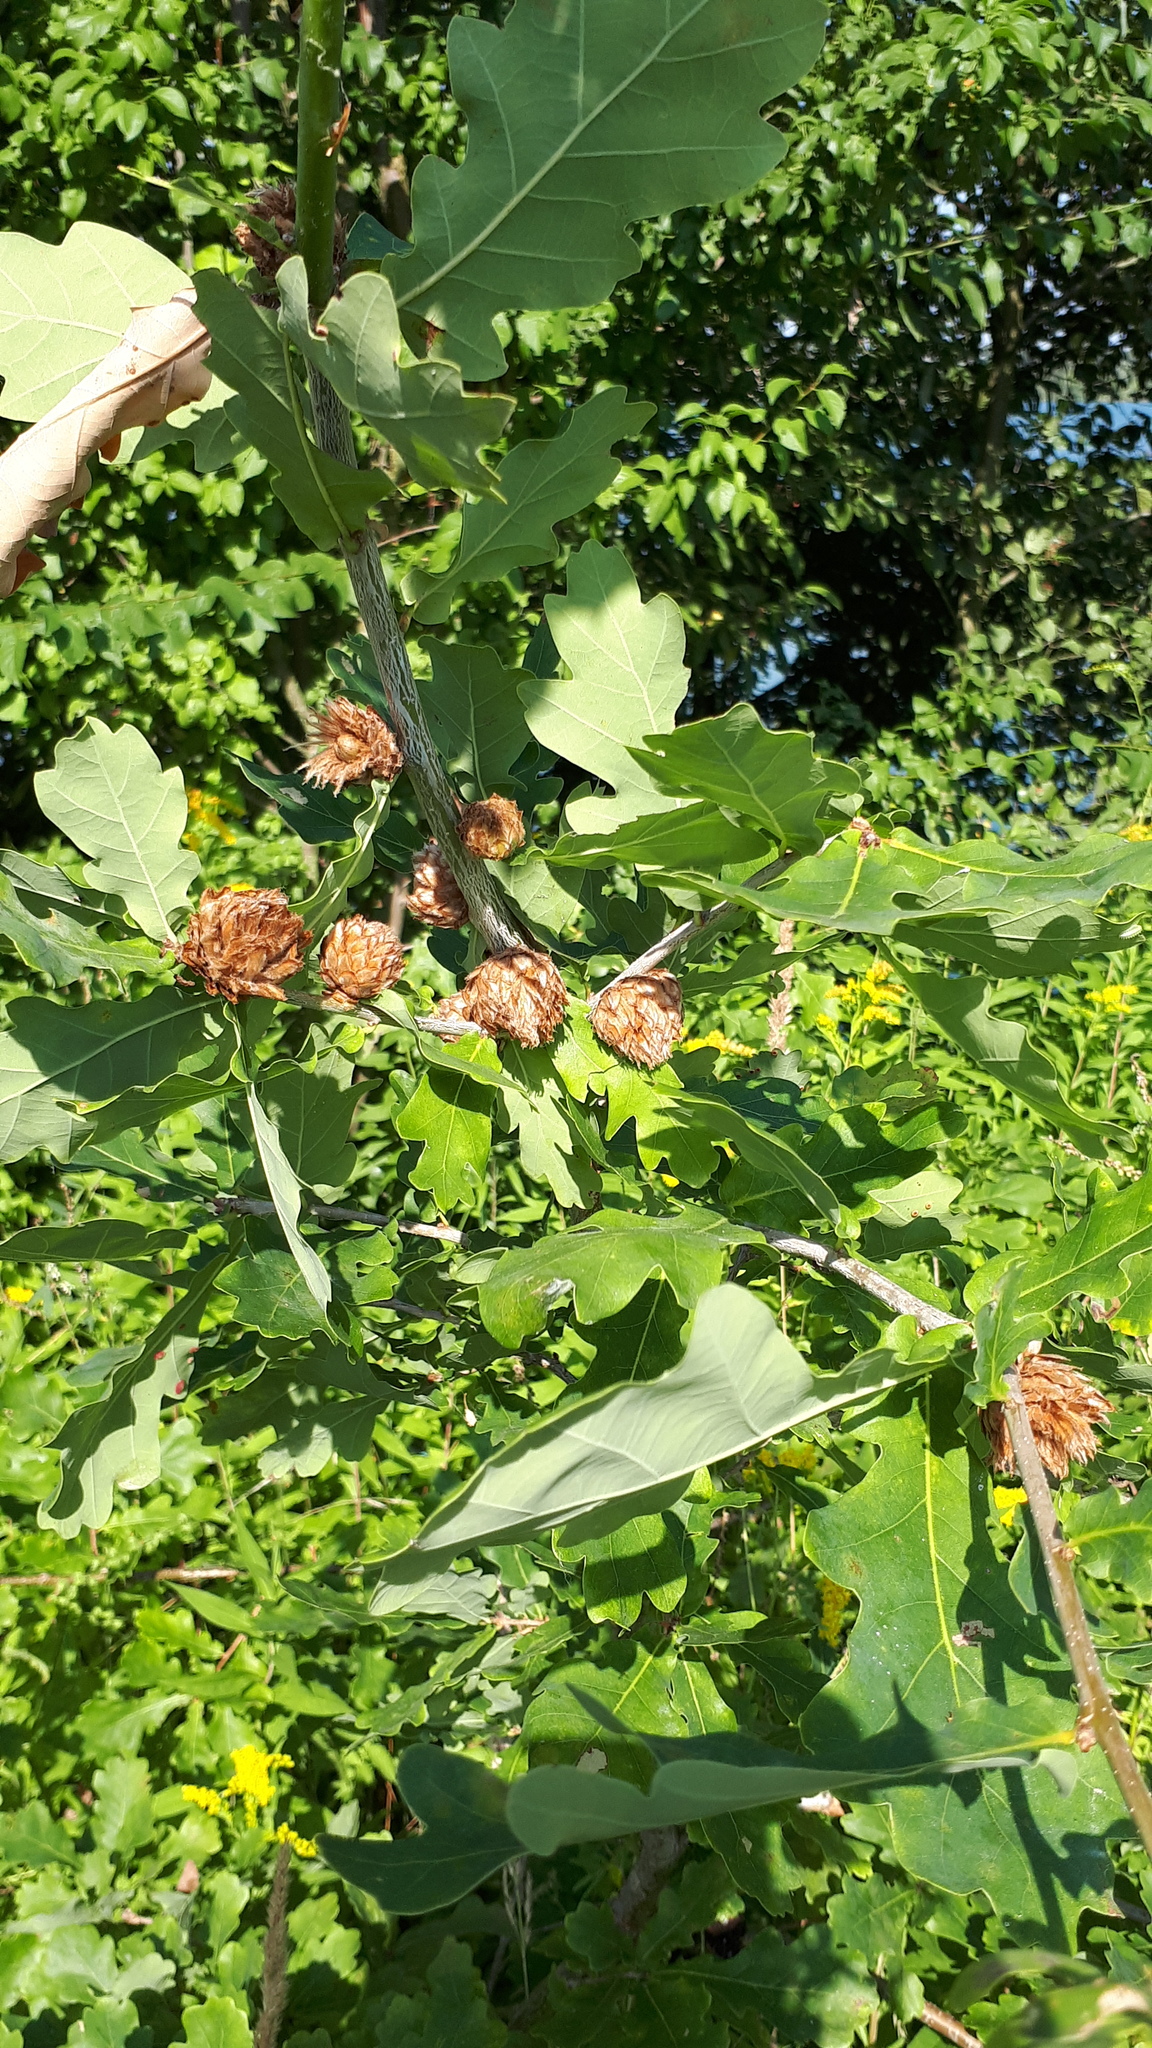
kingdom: Animalia
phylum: Arthropoda
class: Insecta
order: Hymenoptera
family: Cynipidae
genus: Andricus
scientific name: Andricus foecundatrix
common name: Artichoke gall
